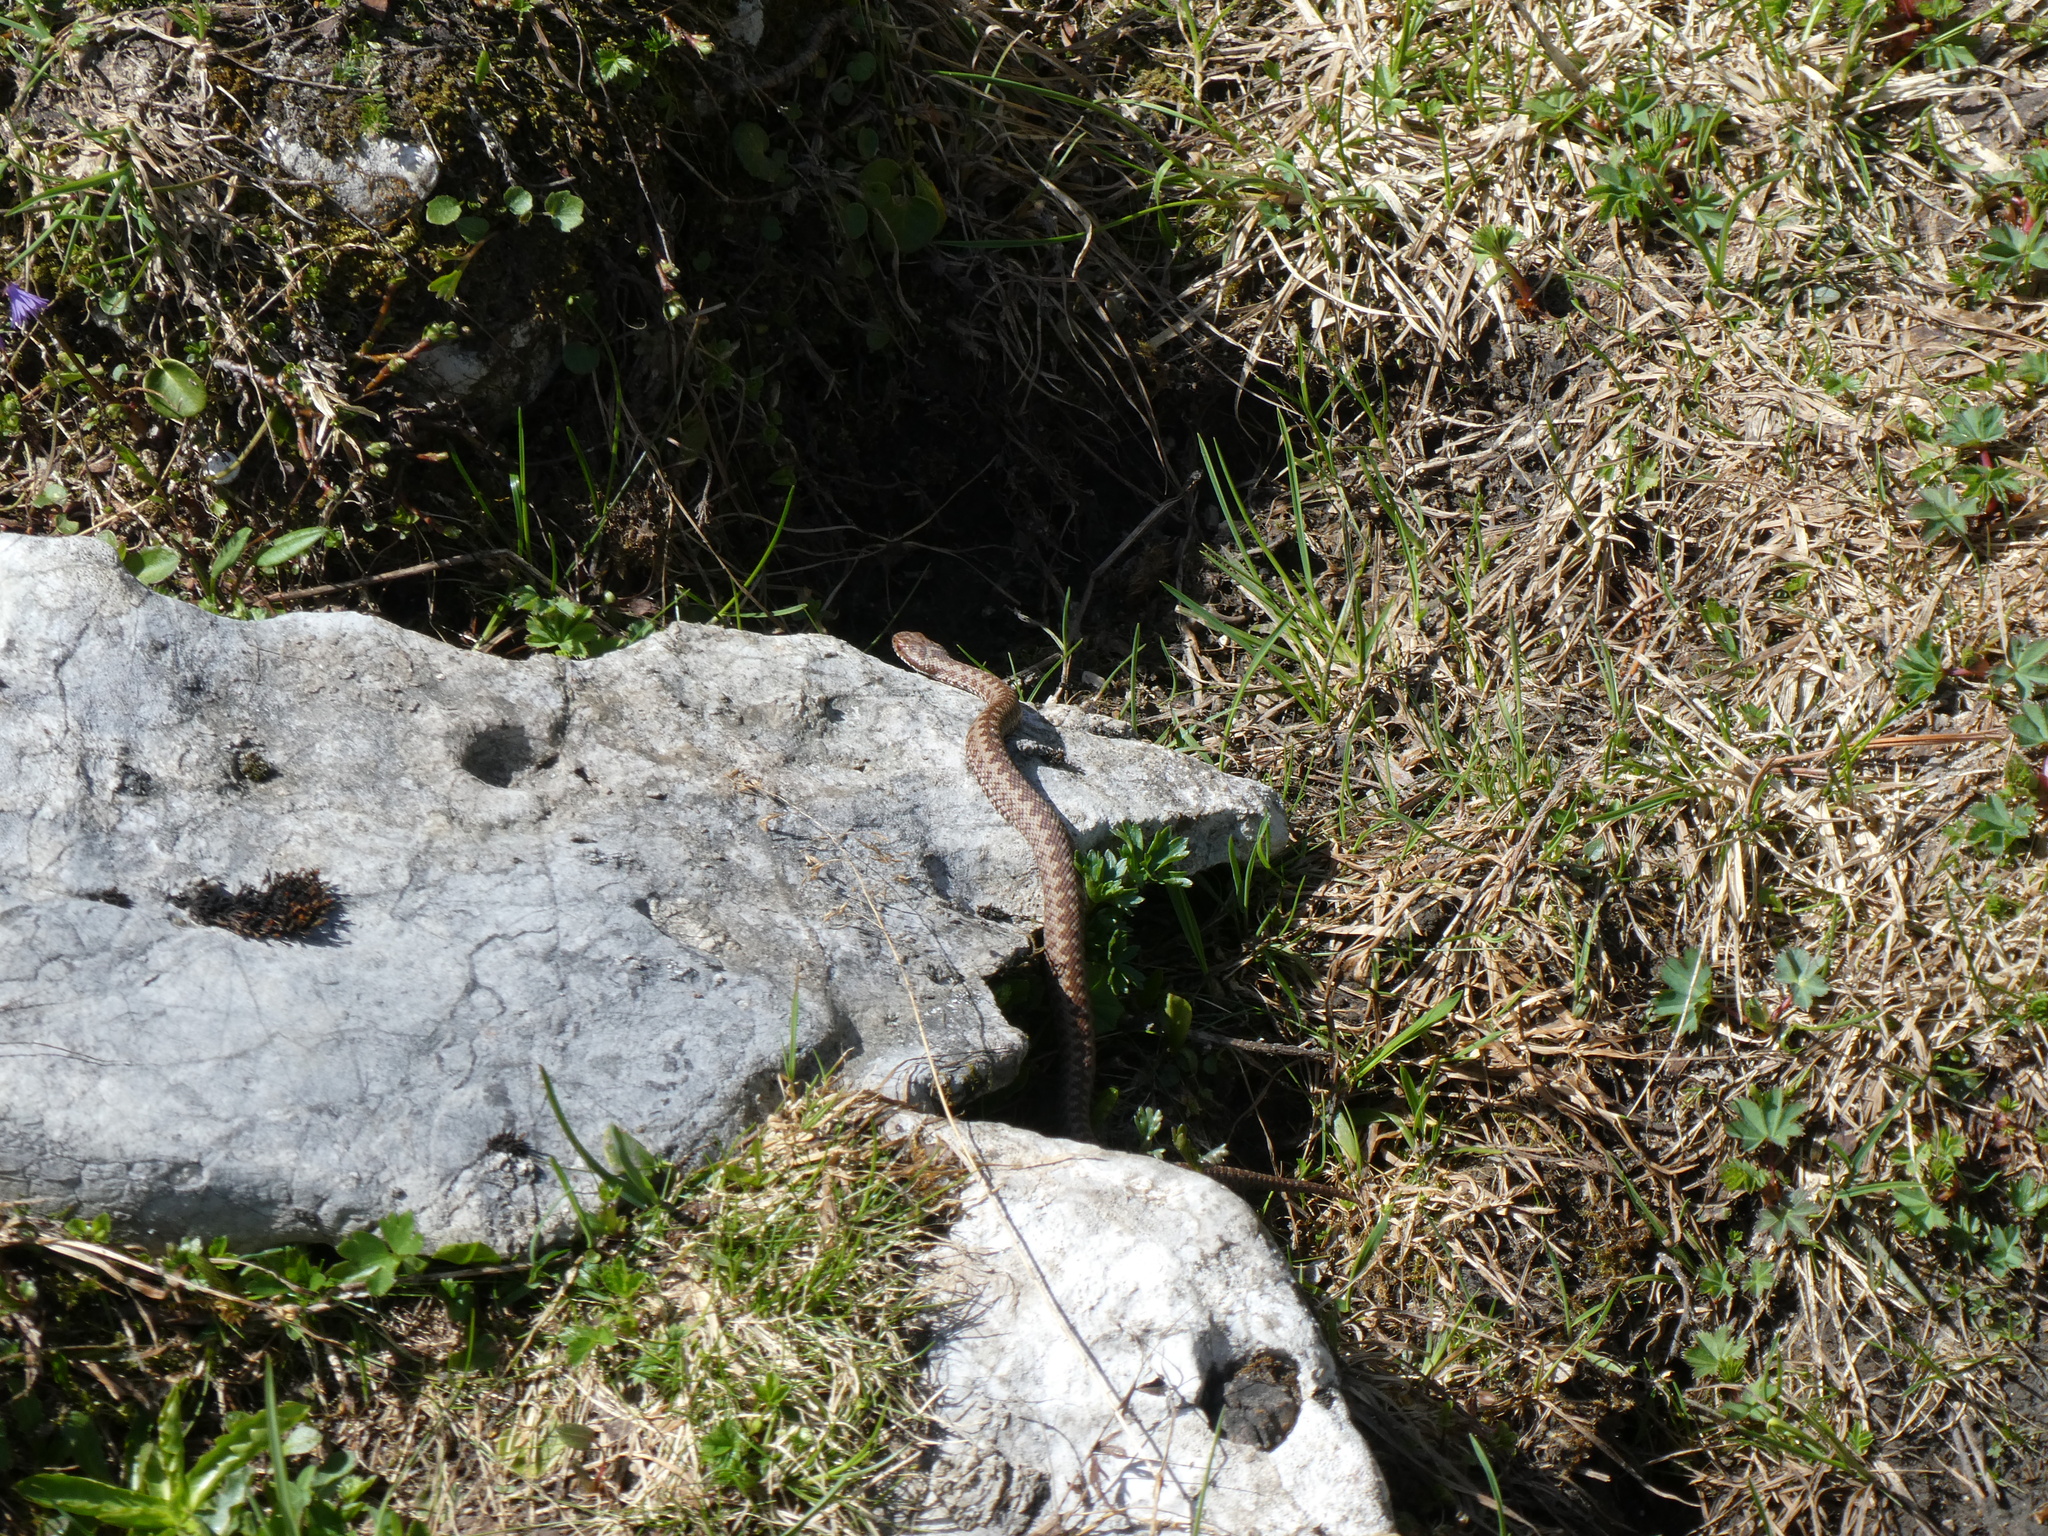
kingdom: Animalia
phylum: Chordata
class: Squamata
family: Viperidae
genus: Vipera
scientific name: Vipera berus
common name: Adder
